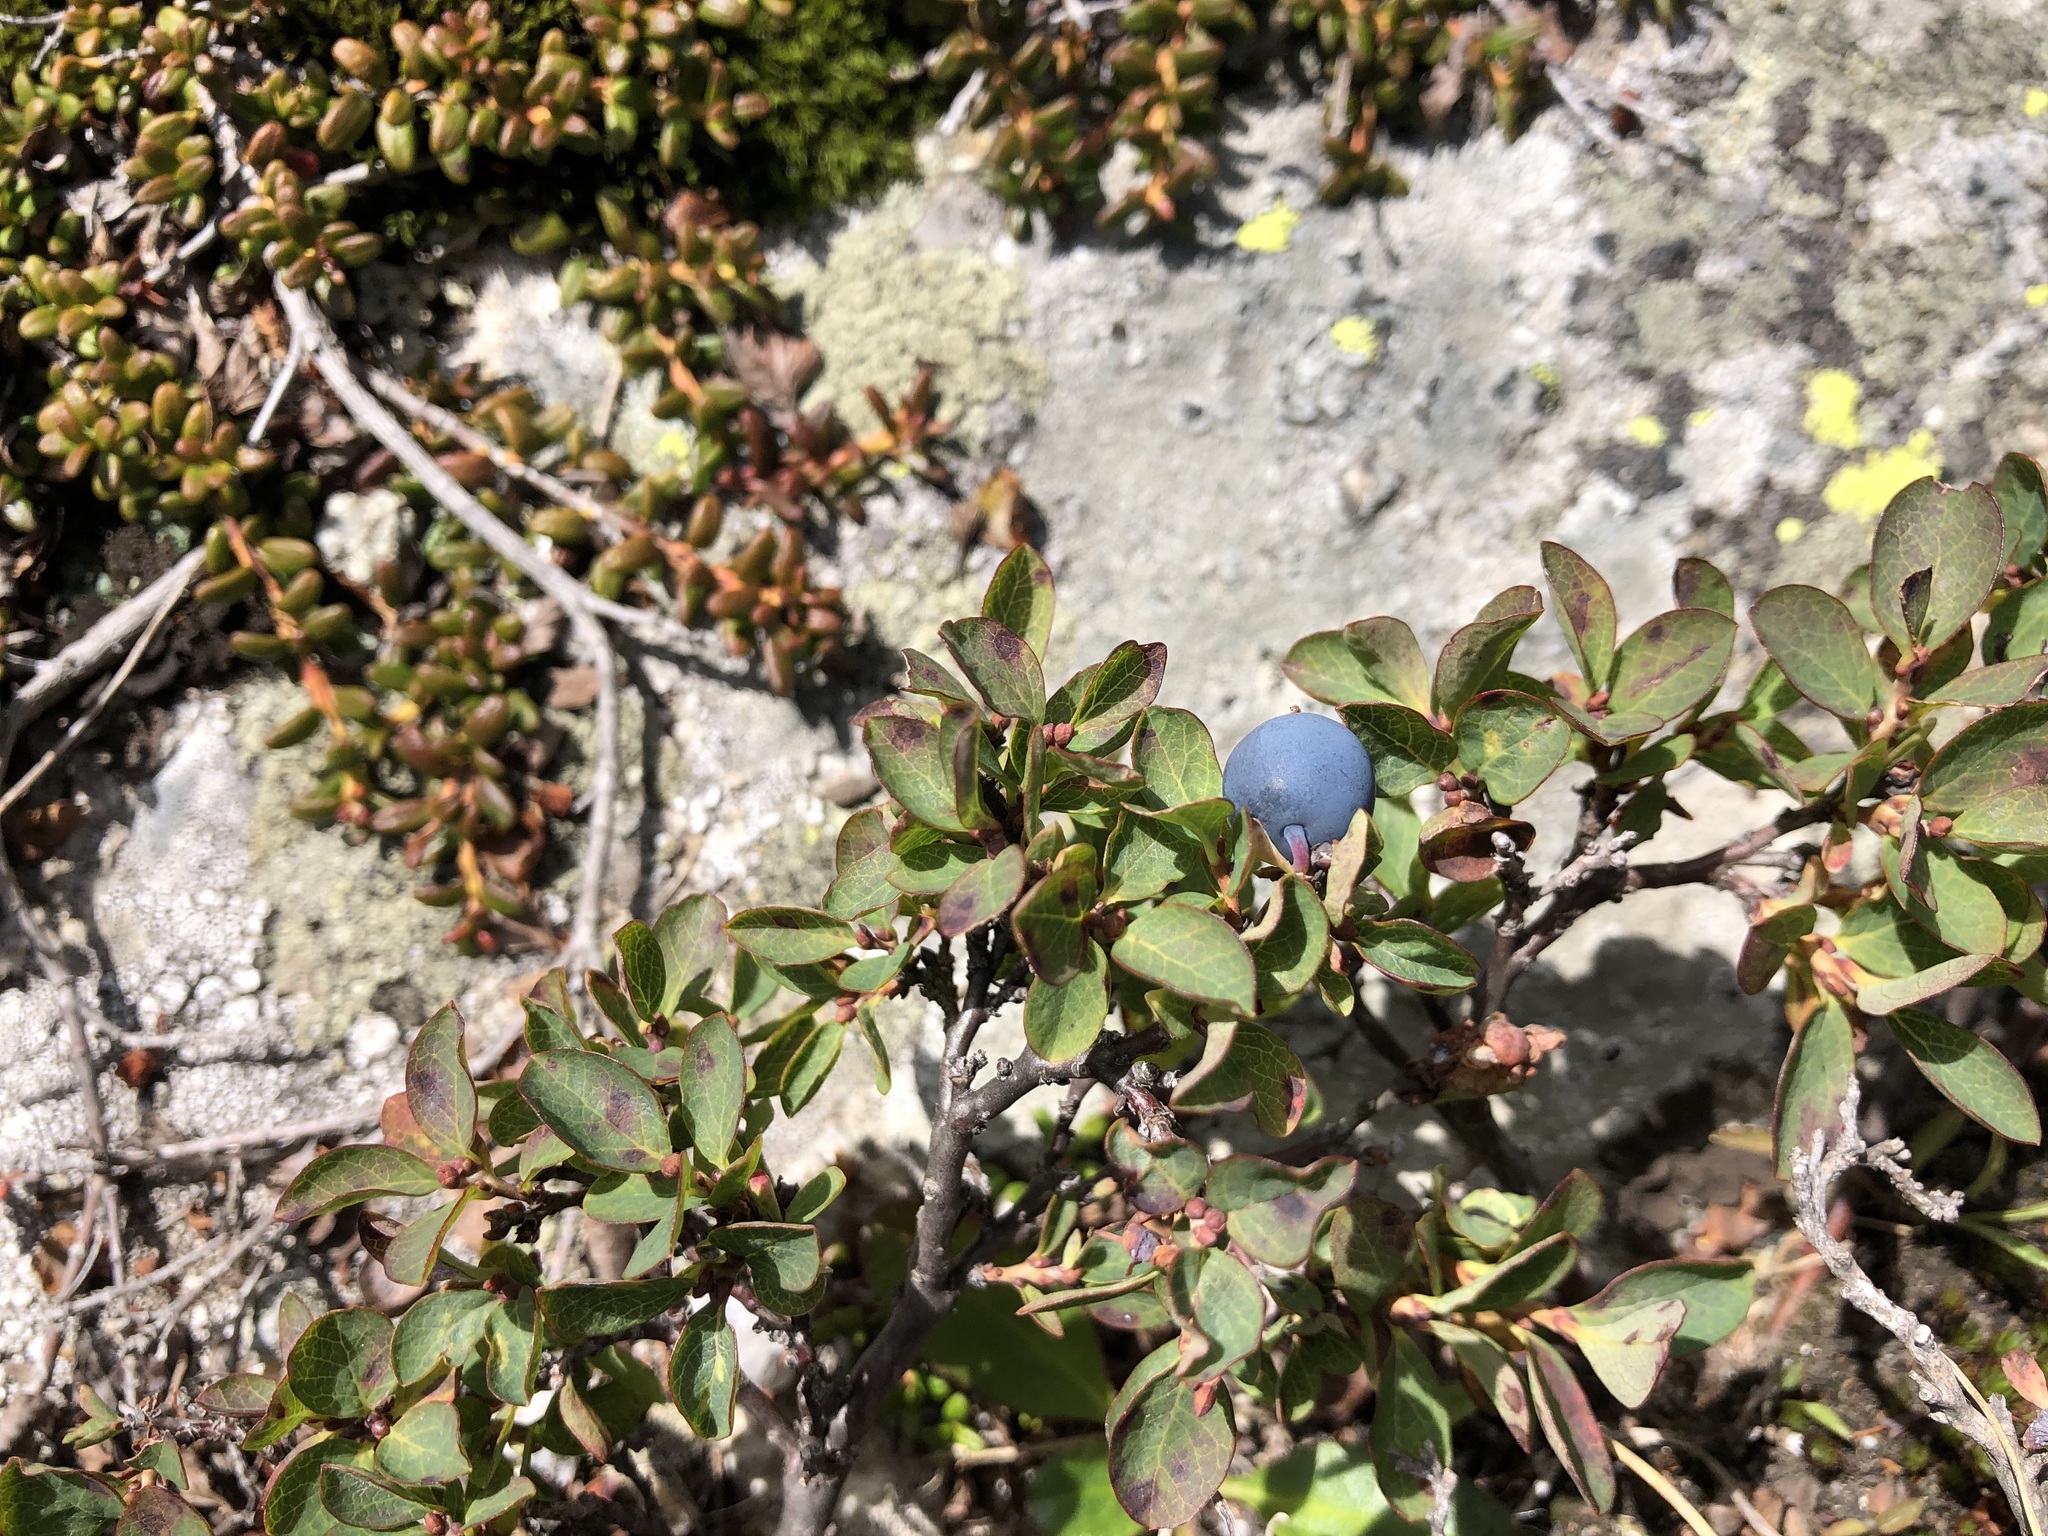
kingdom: Plantae
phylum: Tracheophyta
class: Magnoliopsida
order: Ericales
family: Ericaceae
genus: Vaccinium
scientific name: Vaccinium uliginosum
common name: Bog bilberry
